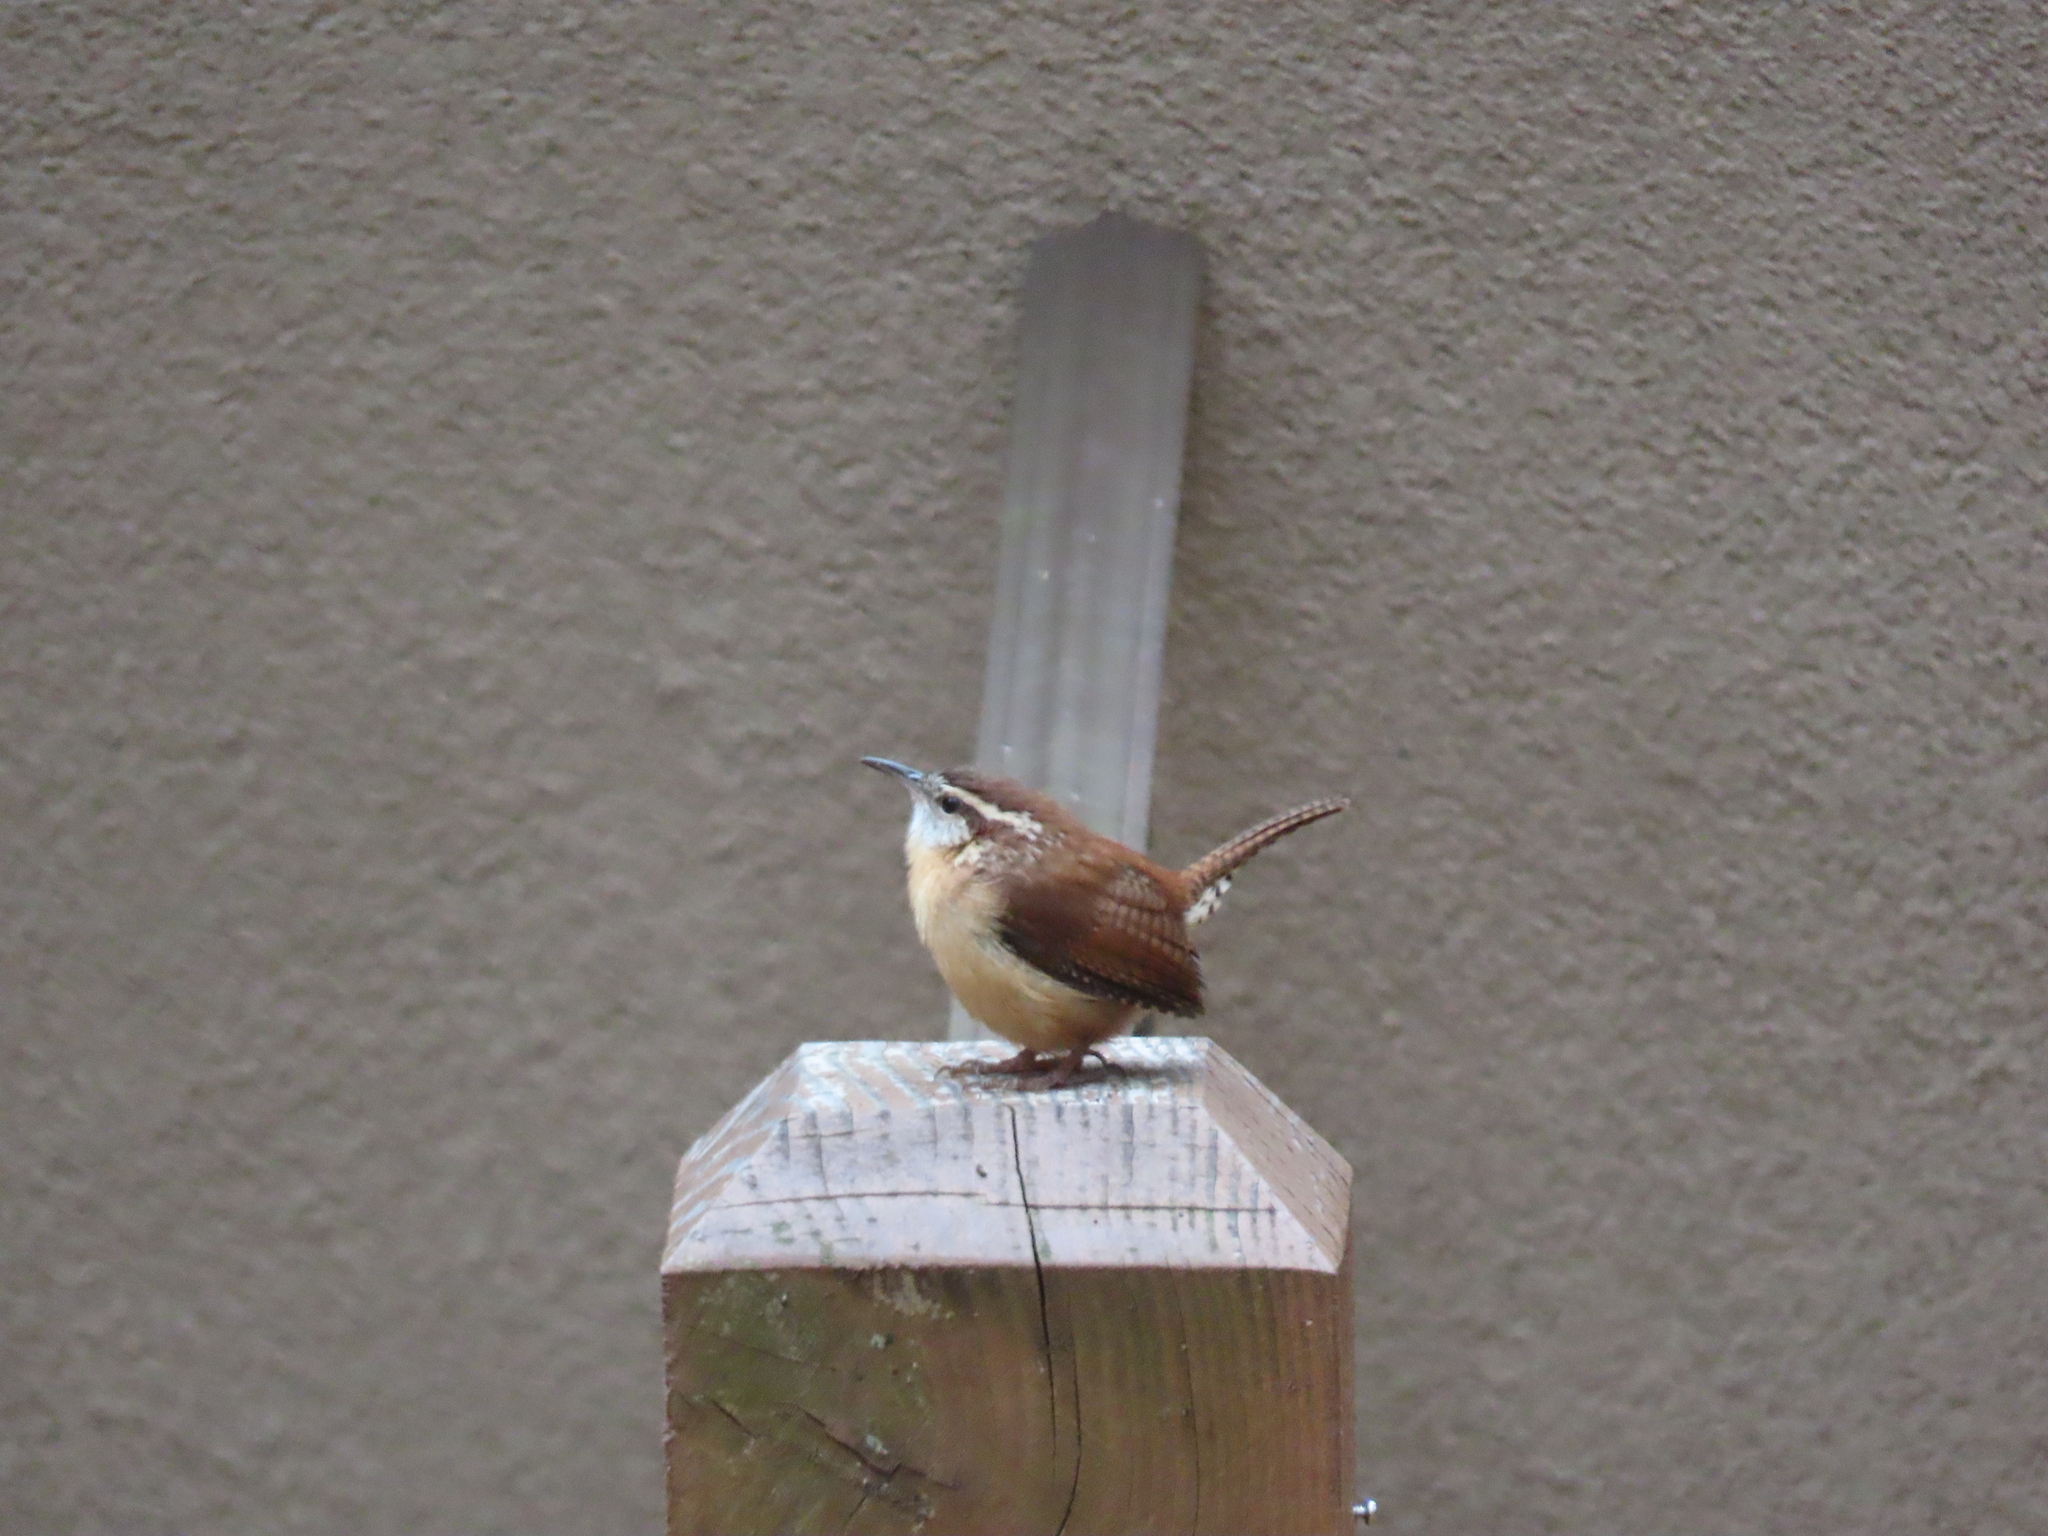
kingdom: Animalia
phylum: Chordata
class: Aves
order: Passeriformes
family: Troglodytidae
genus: Thryothorus
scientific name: Thryothorus ludovicianus
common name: Carolina wren
